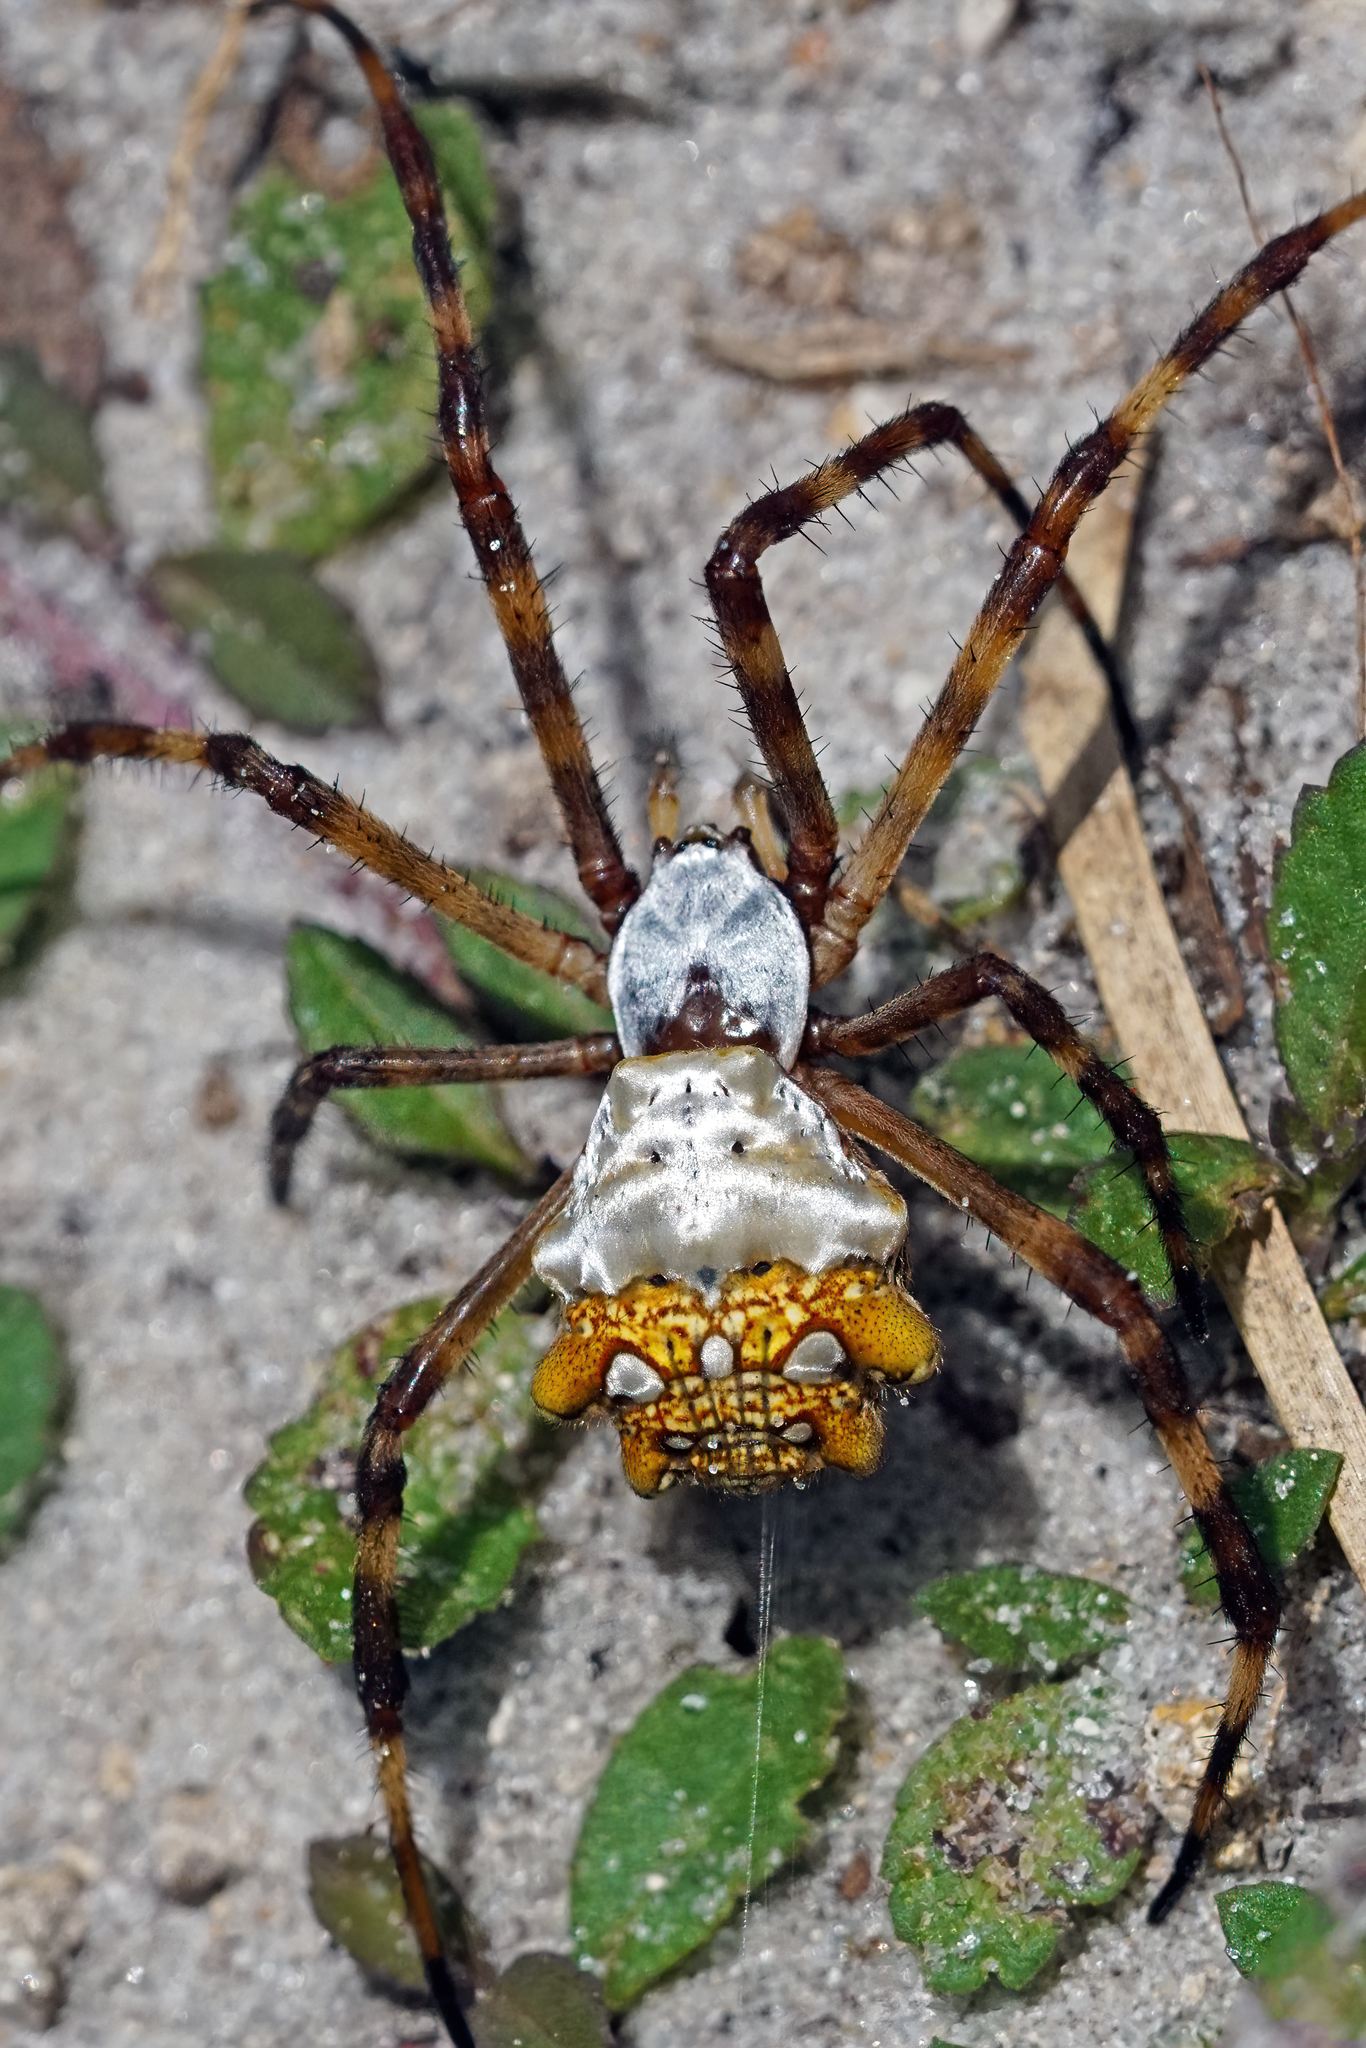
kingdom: Animalia
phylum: Arthropoda
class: Arachnida
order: Araneae
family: Araneidae
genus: Argiope
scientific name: Argiope argentata
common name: Orb weavers
